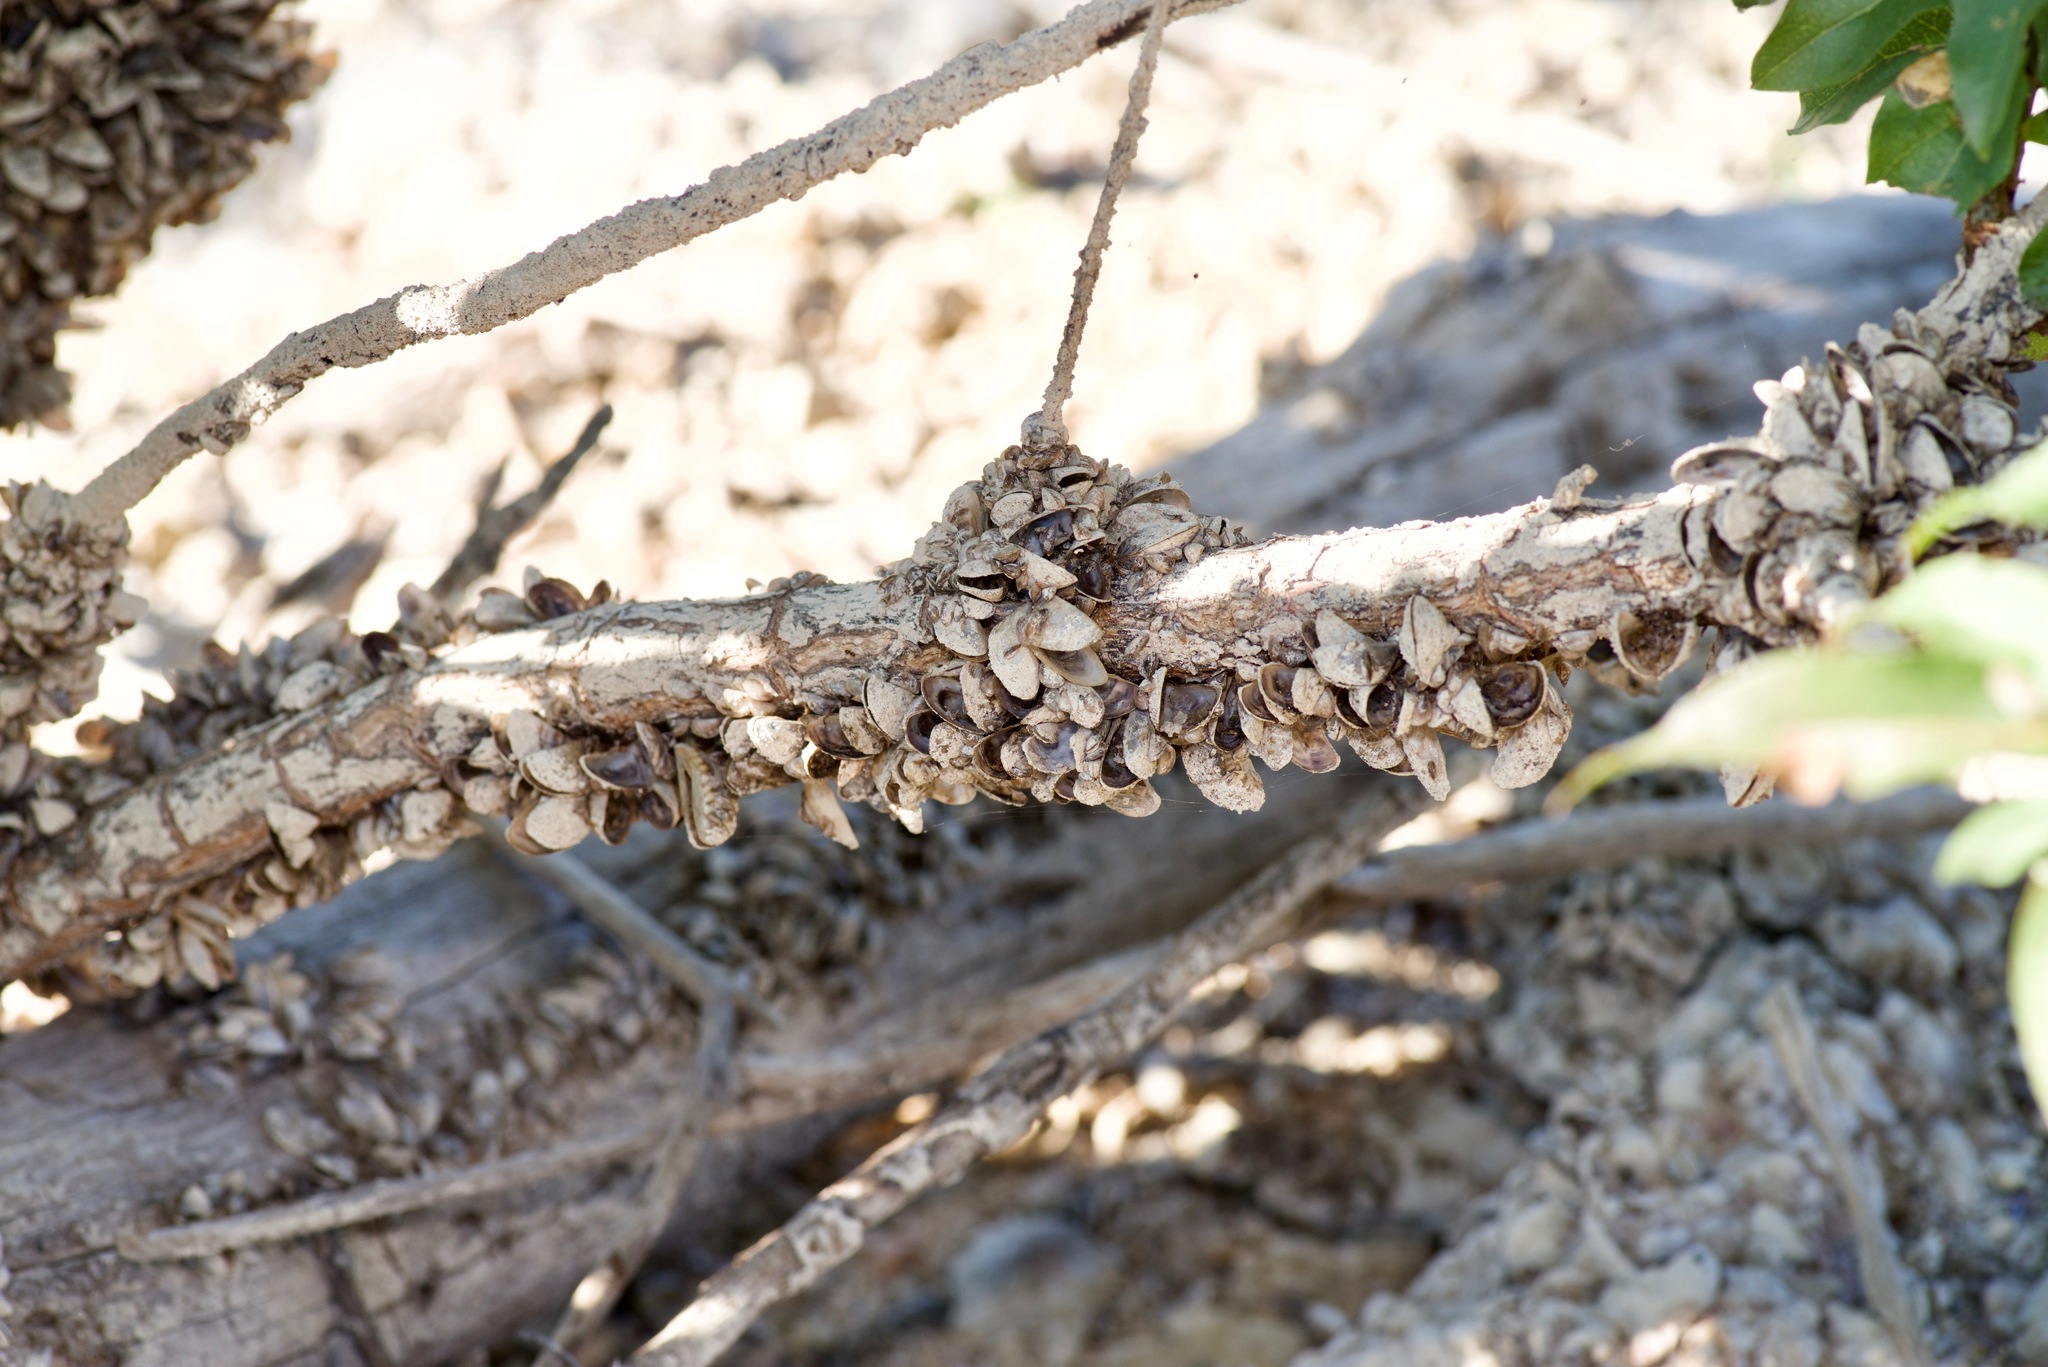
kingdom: Animalia
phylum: Mollusca
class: Bivalvia
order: Myida
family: Dreissenidae
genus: Dreissena
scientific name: Dreissena polymorpha
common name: Zebra mussel
